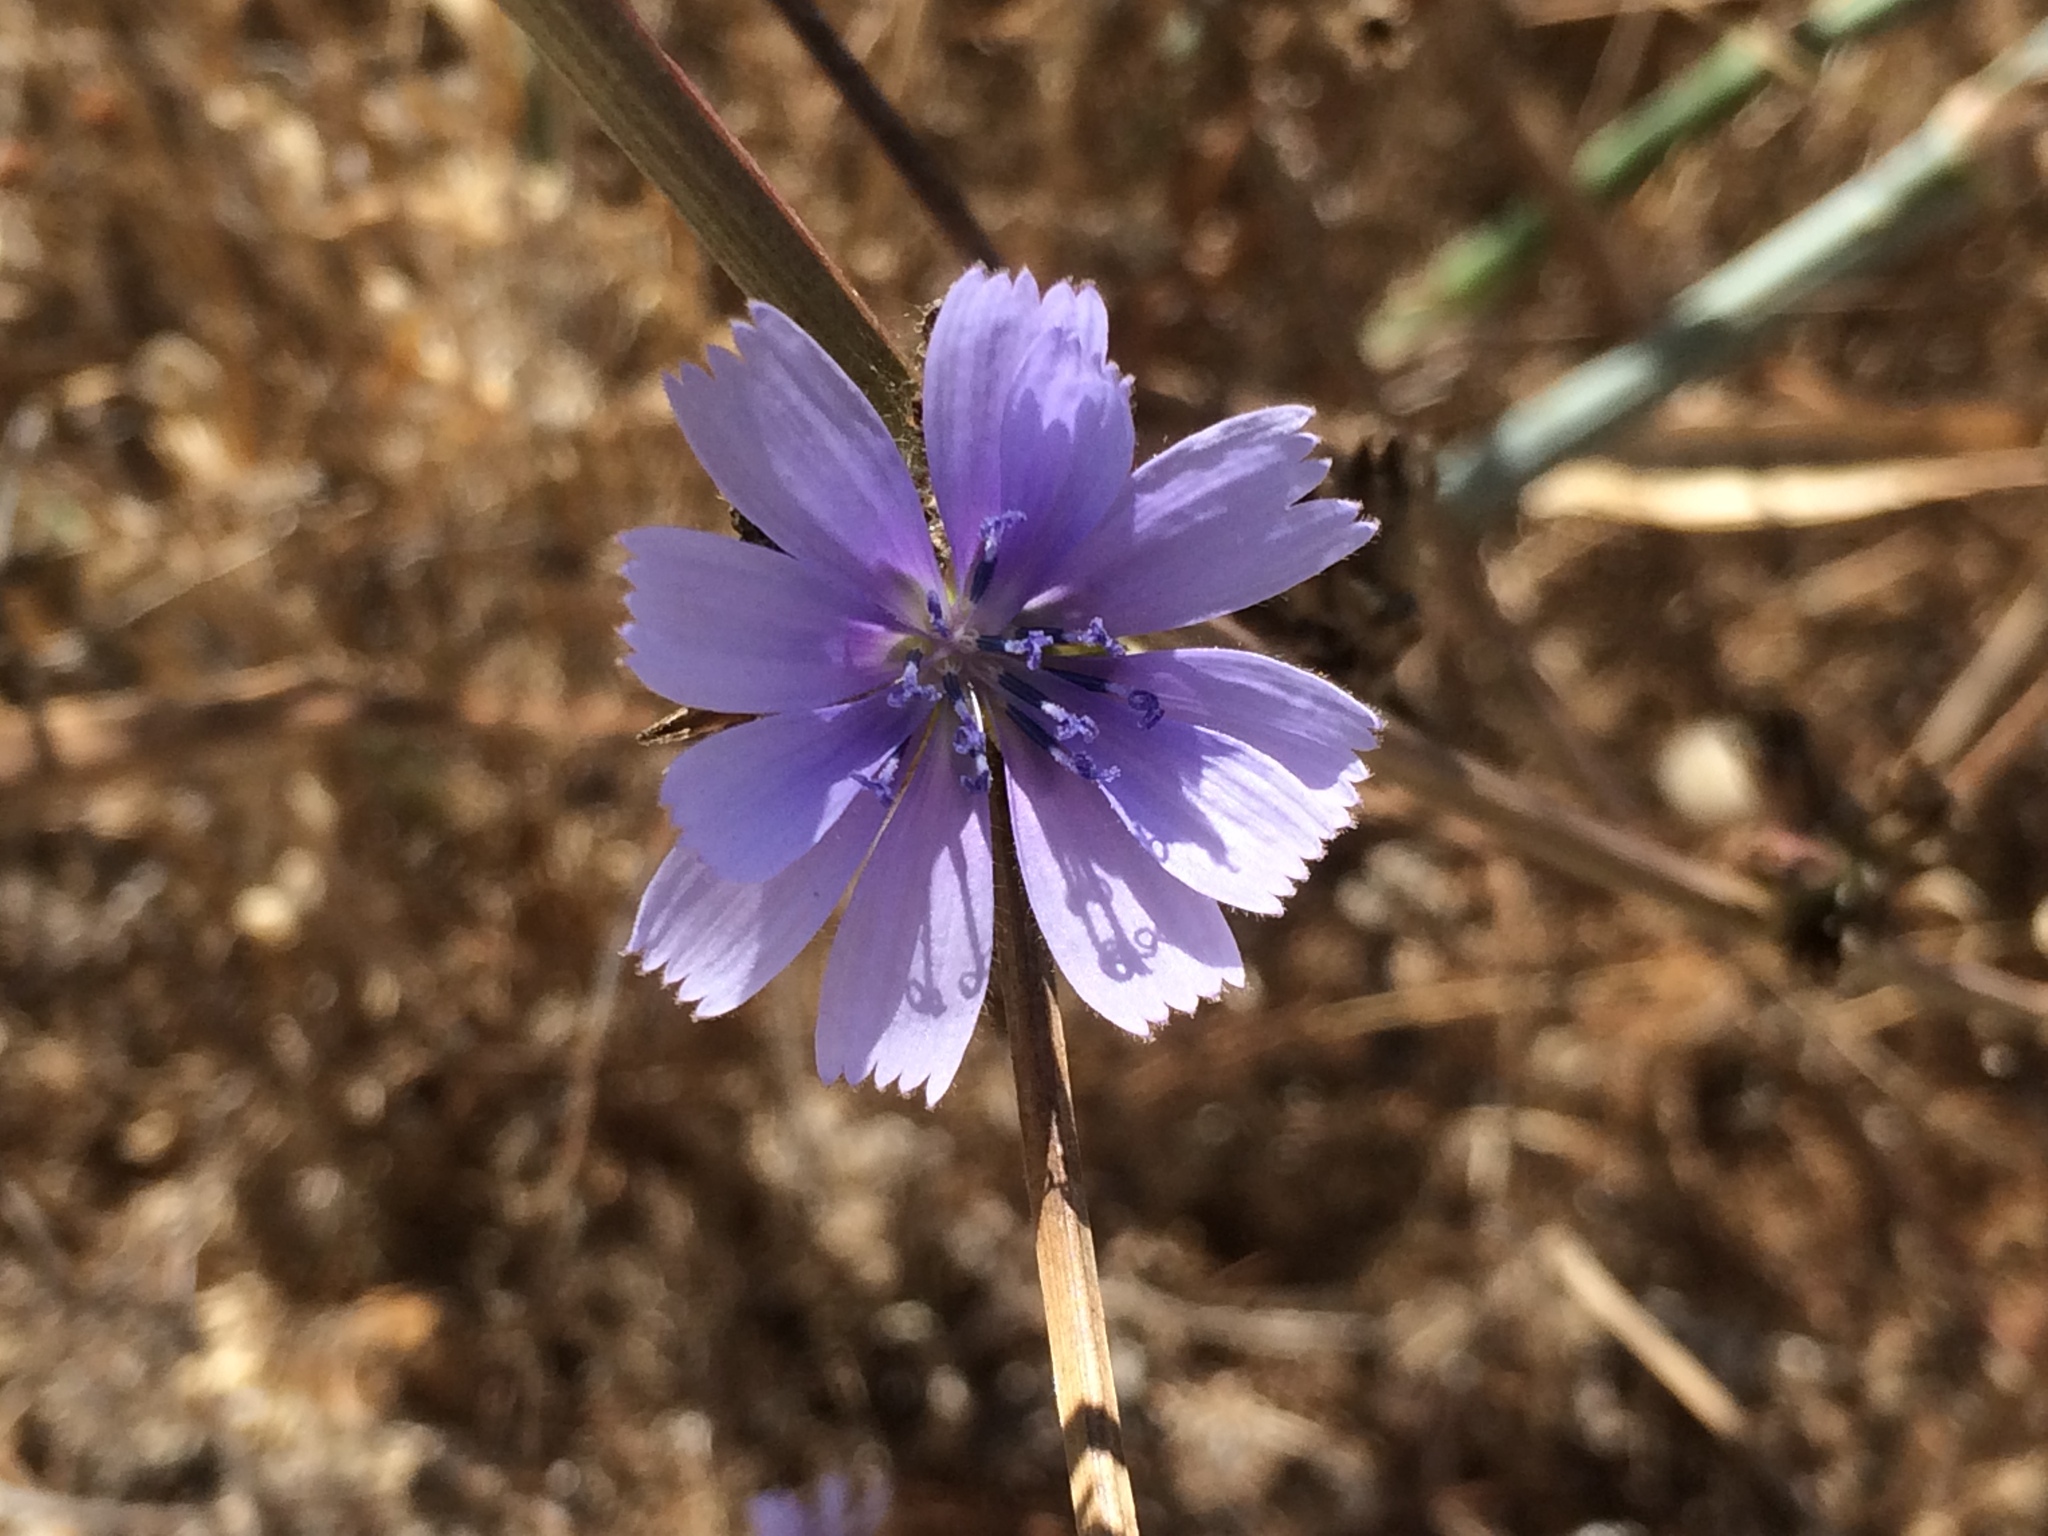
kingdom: Plantae
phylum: Tracheophyta
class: Magnoliopsida
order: Asterales
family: Asteraceae
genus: Cichorium
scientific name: Cichorium intybus
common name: Chicory
